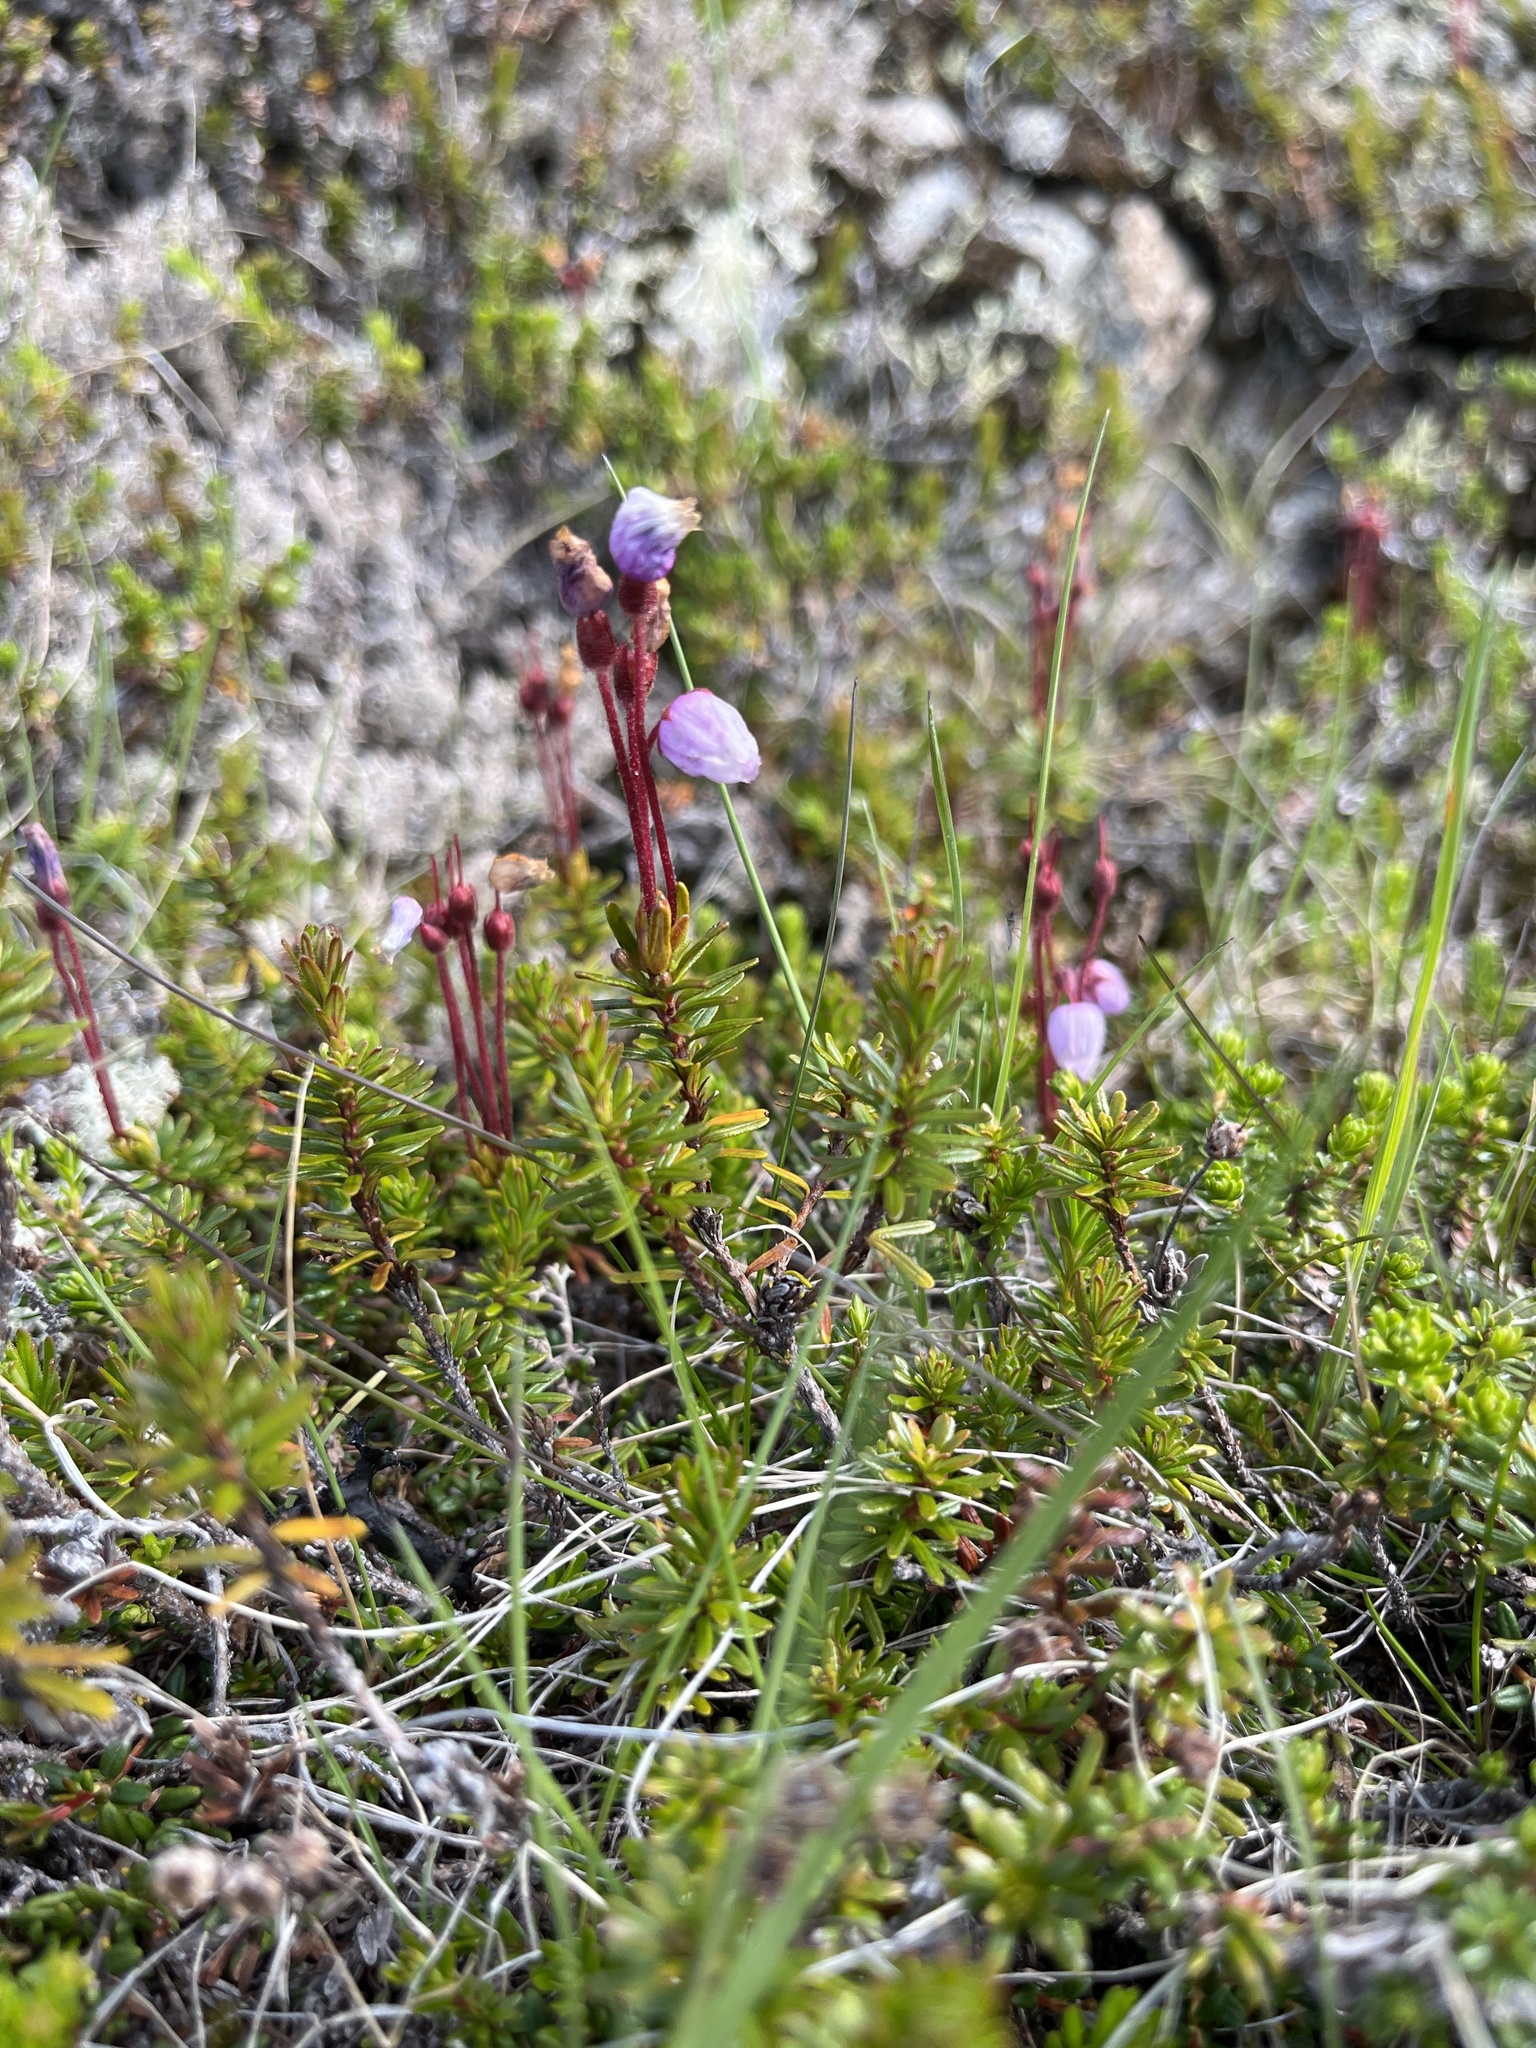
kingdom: Plantae
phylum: Tracheophyta
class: Magnoliopsida
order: Ericales
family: Ericaceae
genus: Phyllodoce
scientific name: Phyllodoce caerulea
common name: Blue heath
